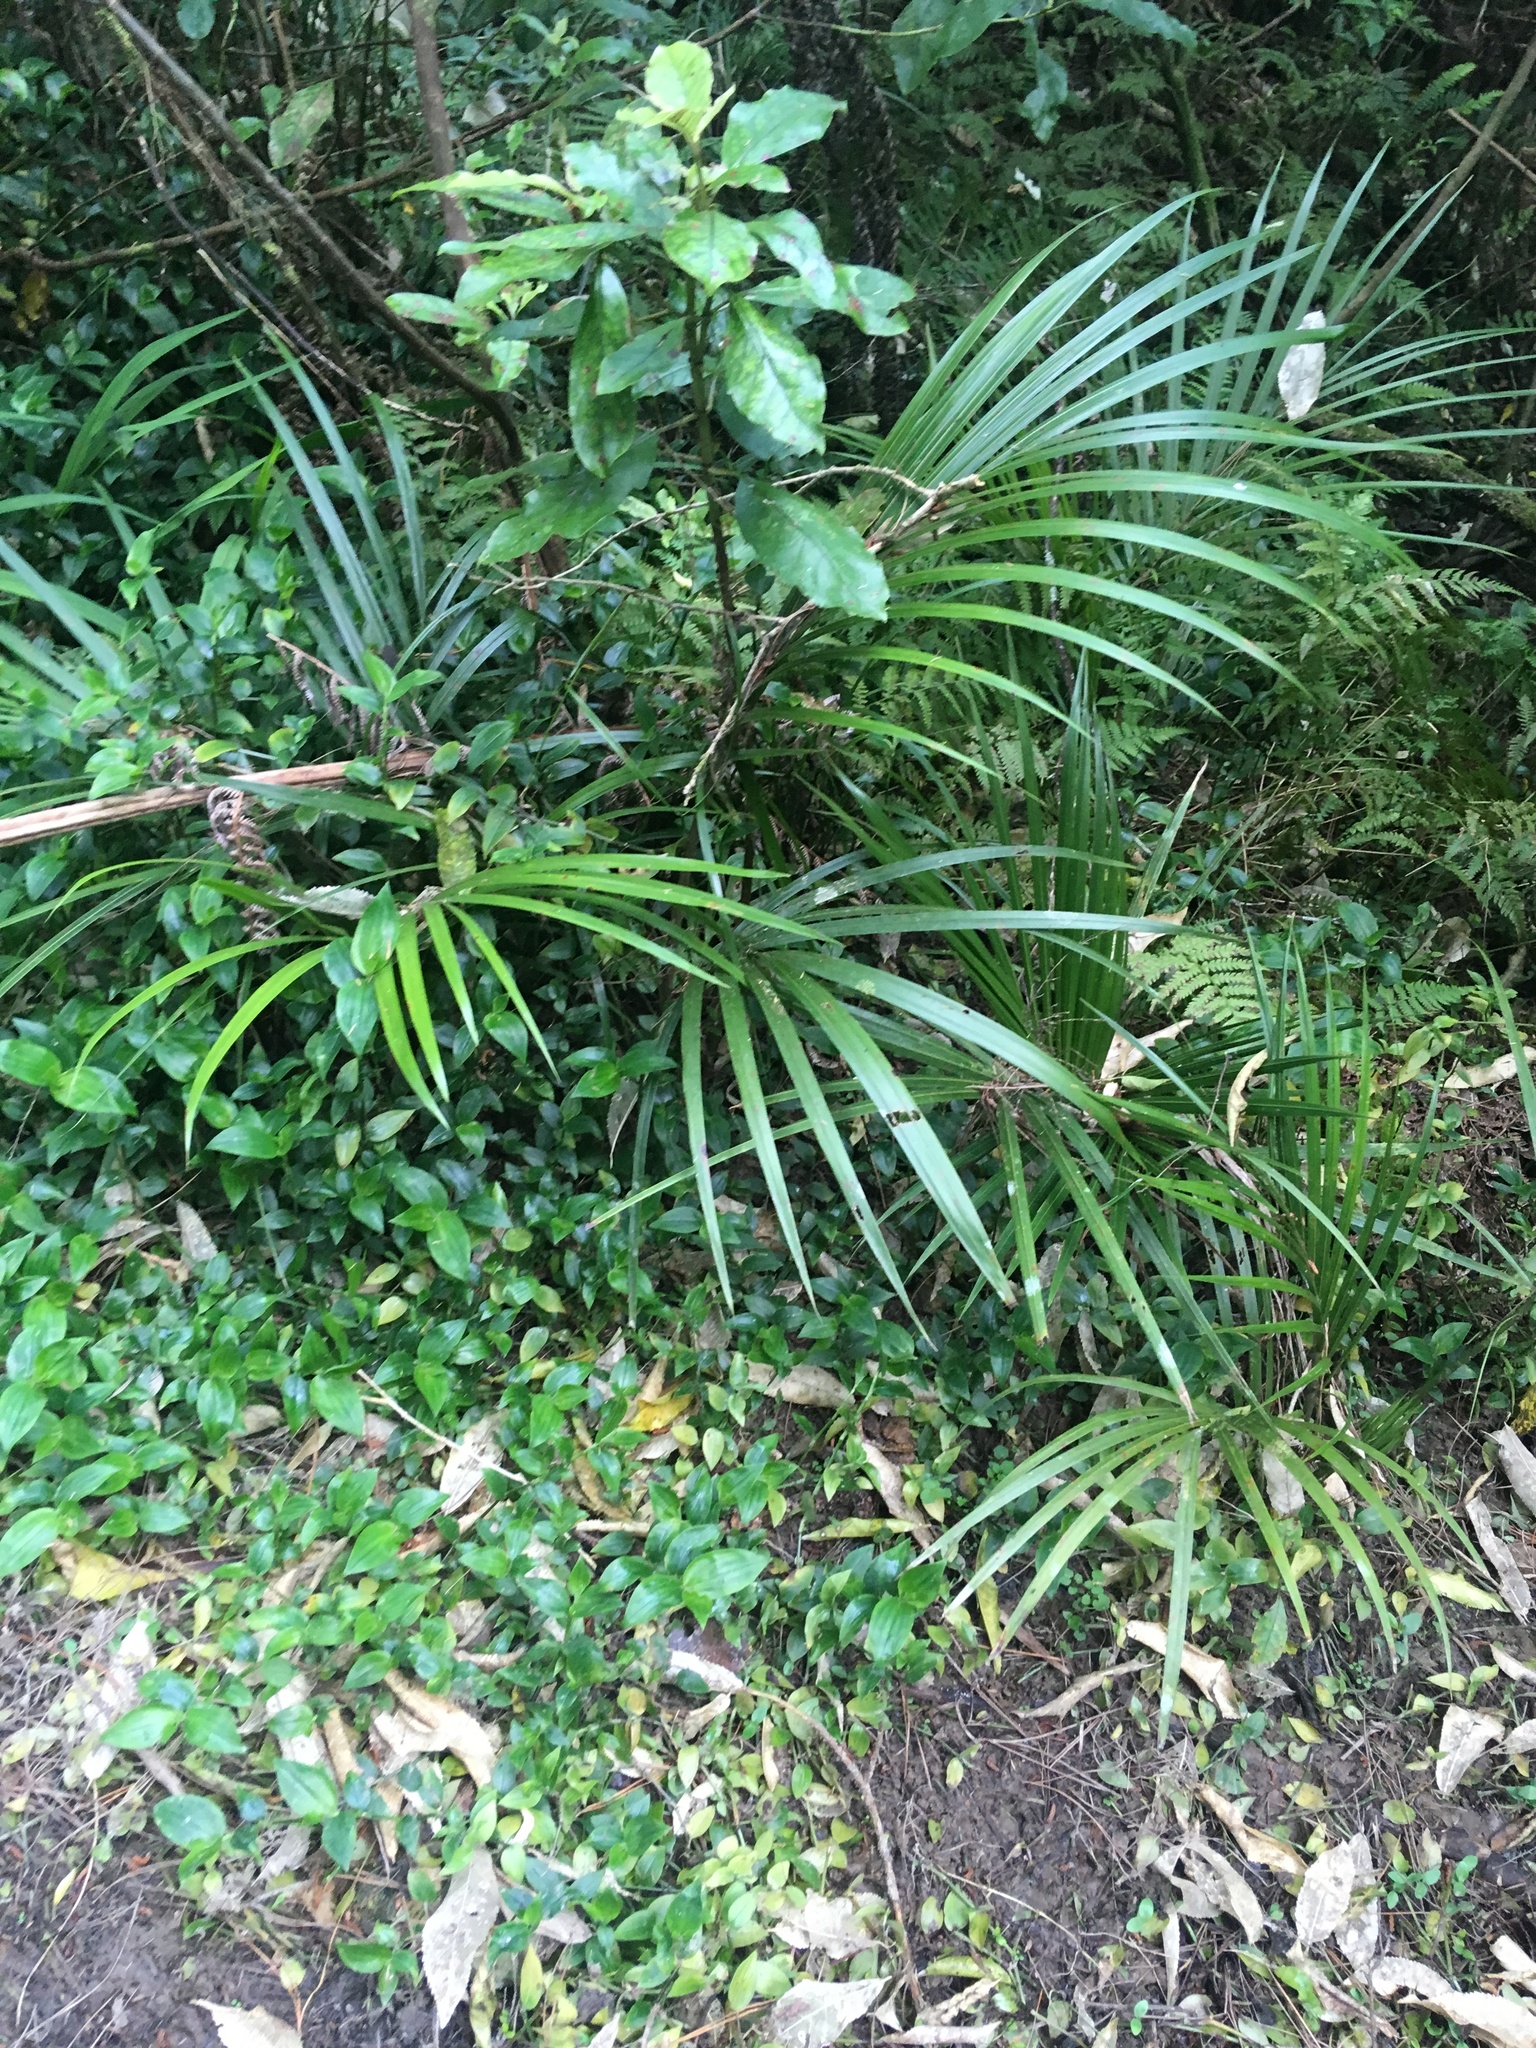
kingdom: Plantae
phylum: Tracheophyta
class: Magnoliopsida
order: Gentianales
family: Rubiaceae
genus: Coprosma
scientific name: Coprosma autumnalis
